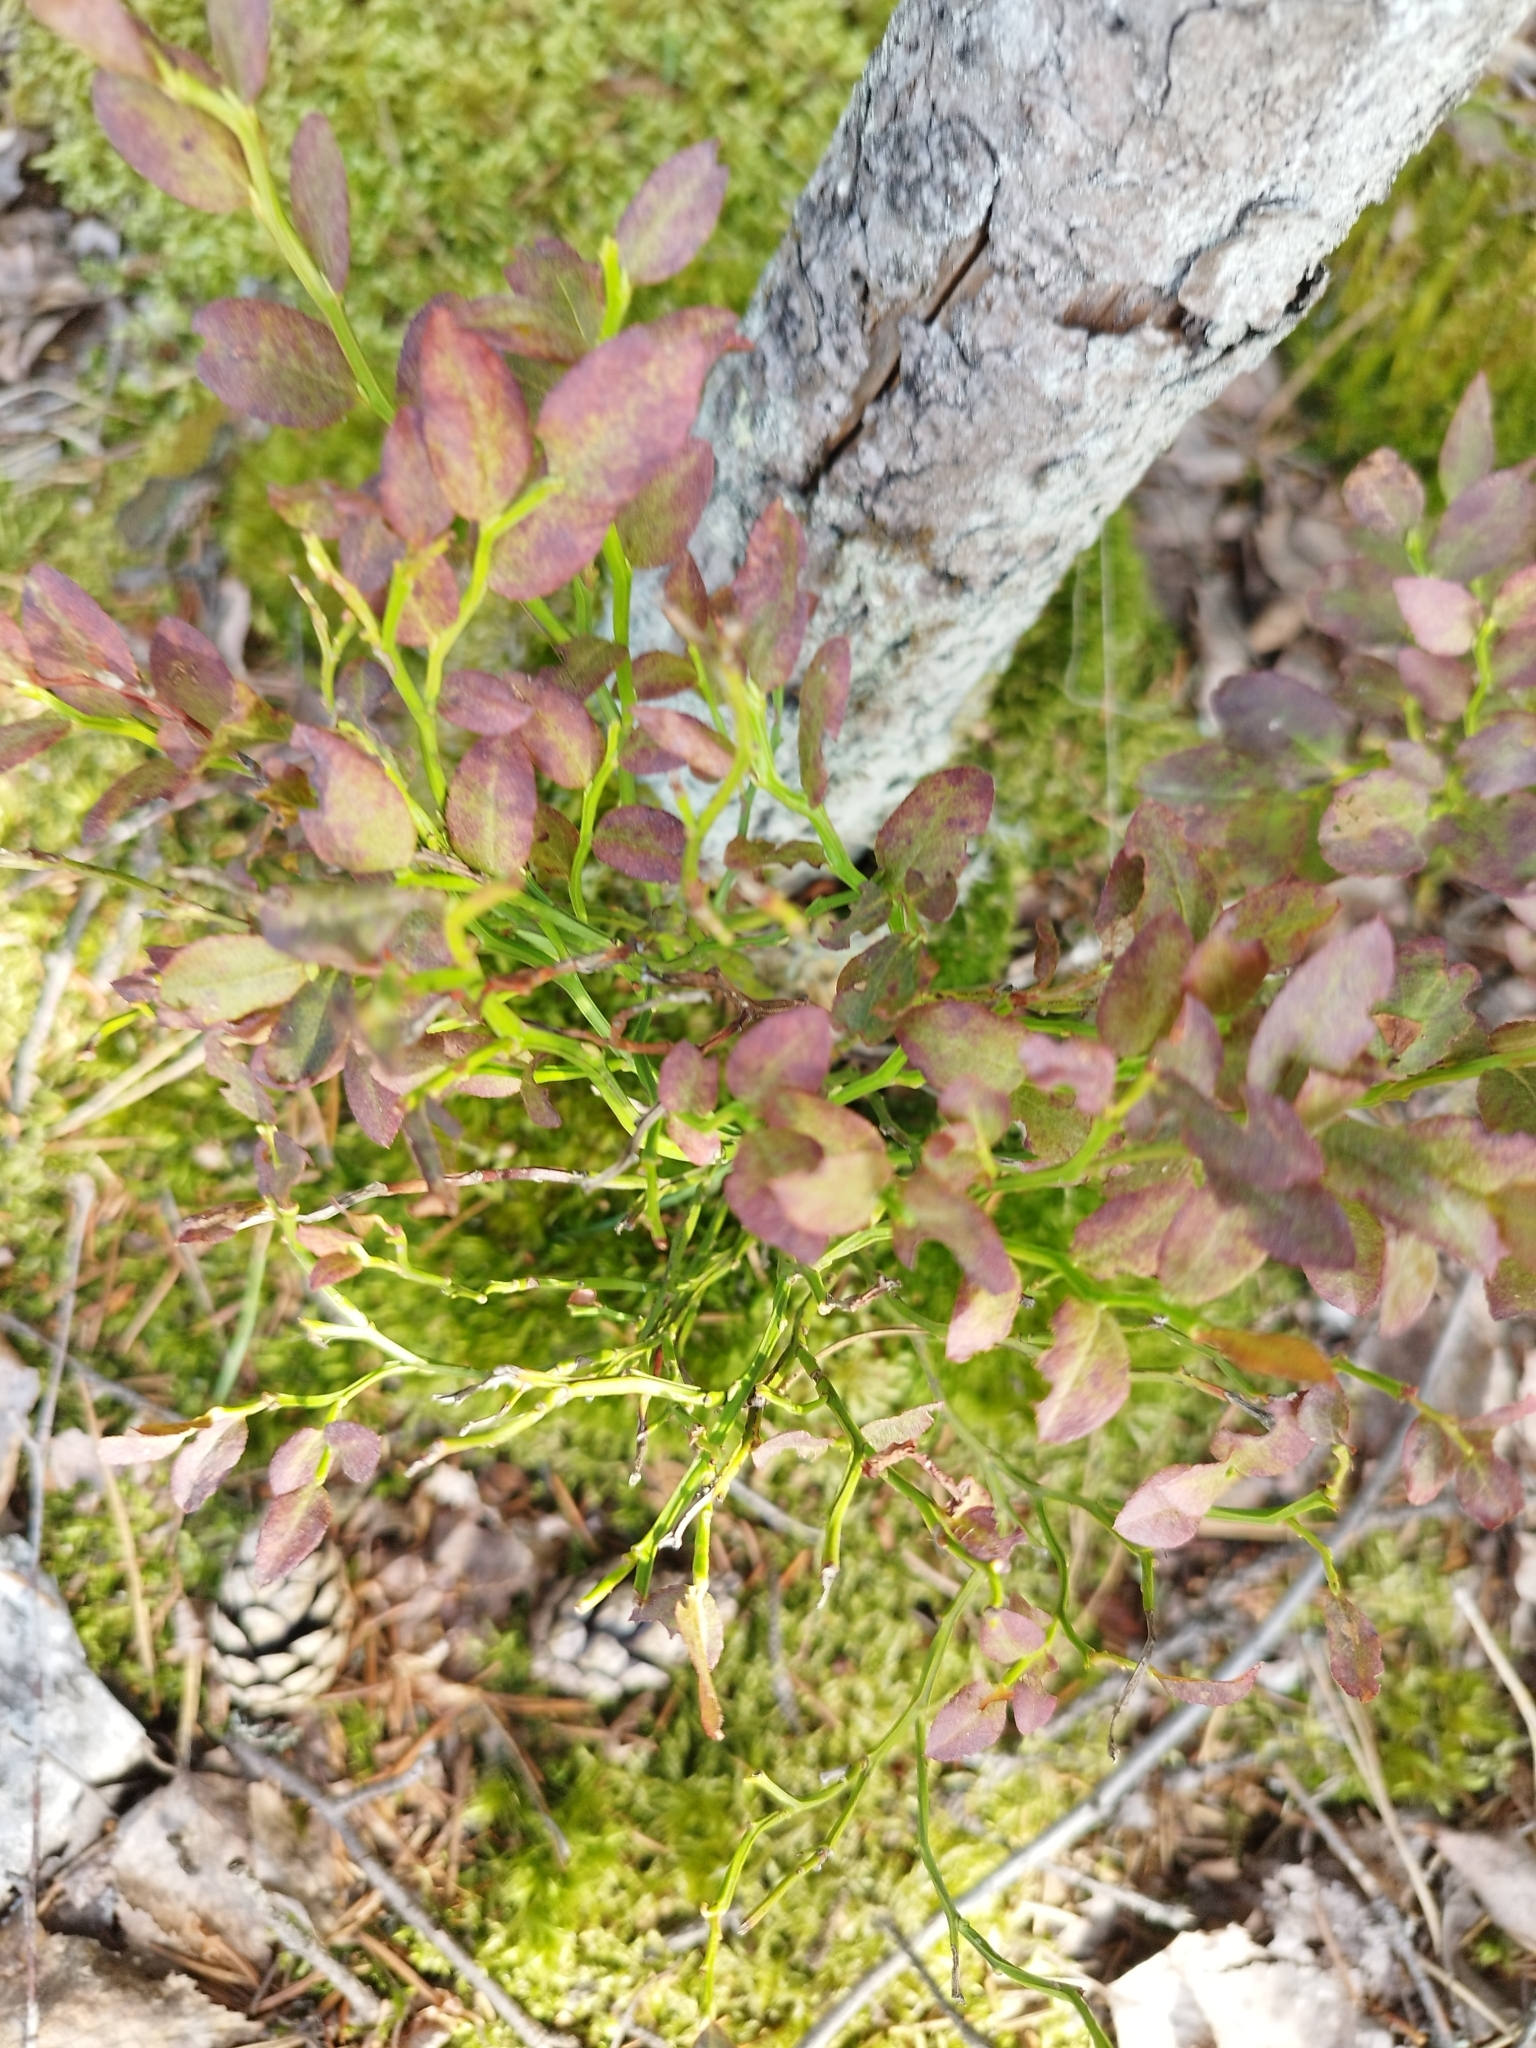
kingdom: Plantae
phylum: Tracheophyta
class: Magnoliopsida
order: Ericales
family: Ericaceae
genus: Vaccinium
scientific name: Vaccinium myrtillus
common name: Bilberry
